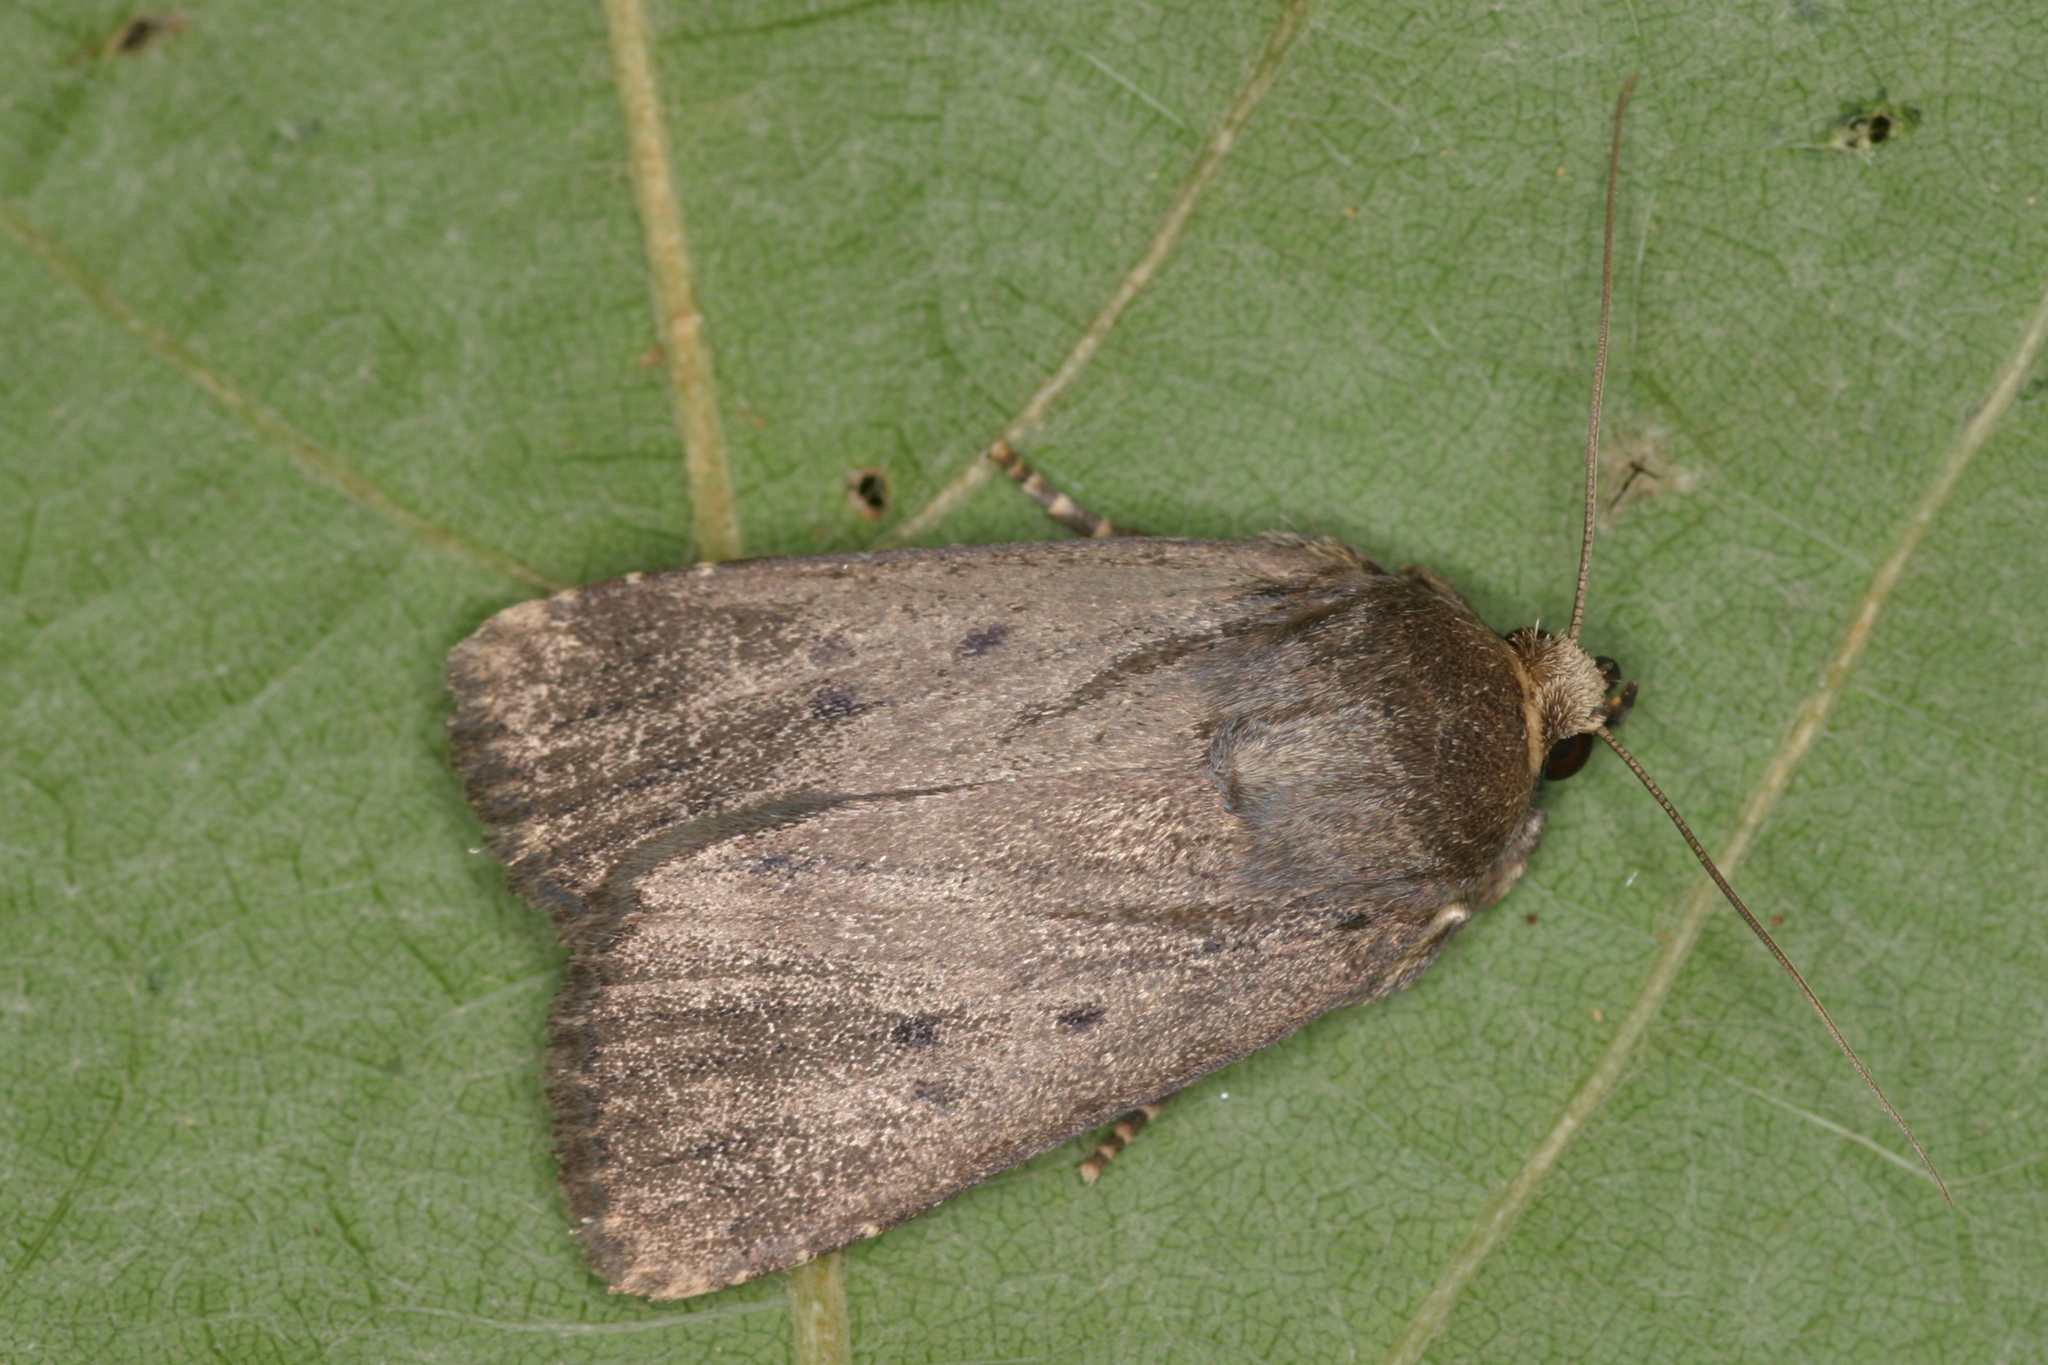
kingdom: Animalia
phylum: Arthropoda
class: Insecta
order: Lepidoptera
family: Noctuidae
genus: Amphipyra
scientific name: Amphipyra tragopoginis
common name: Mouse moth
